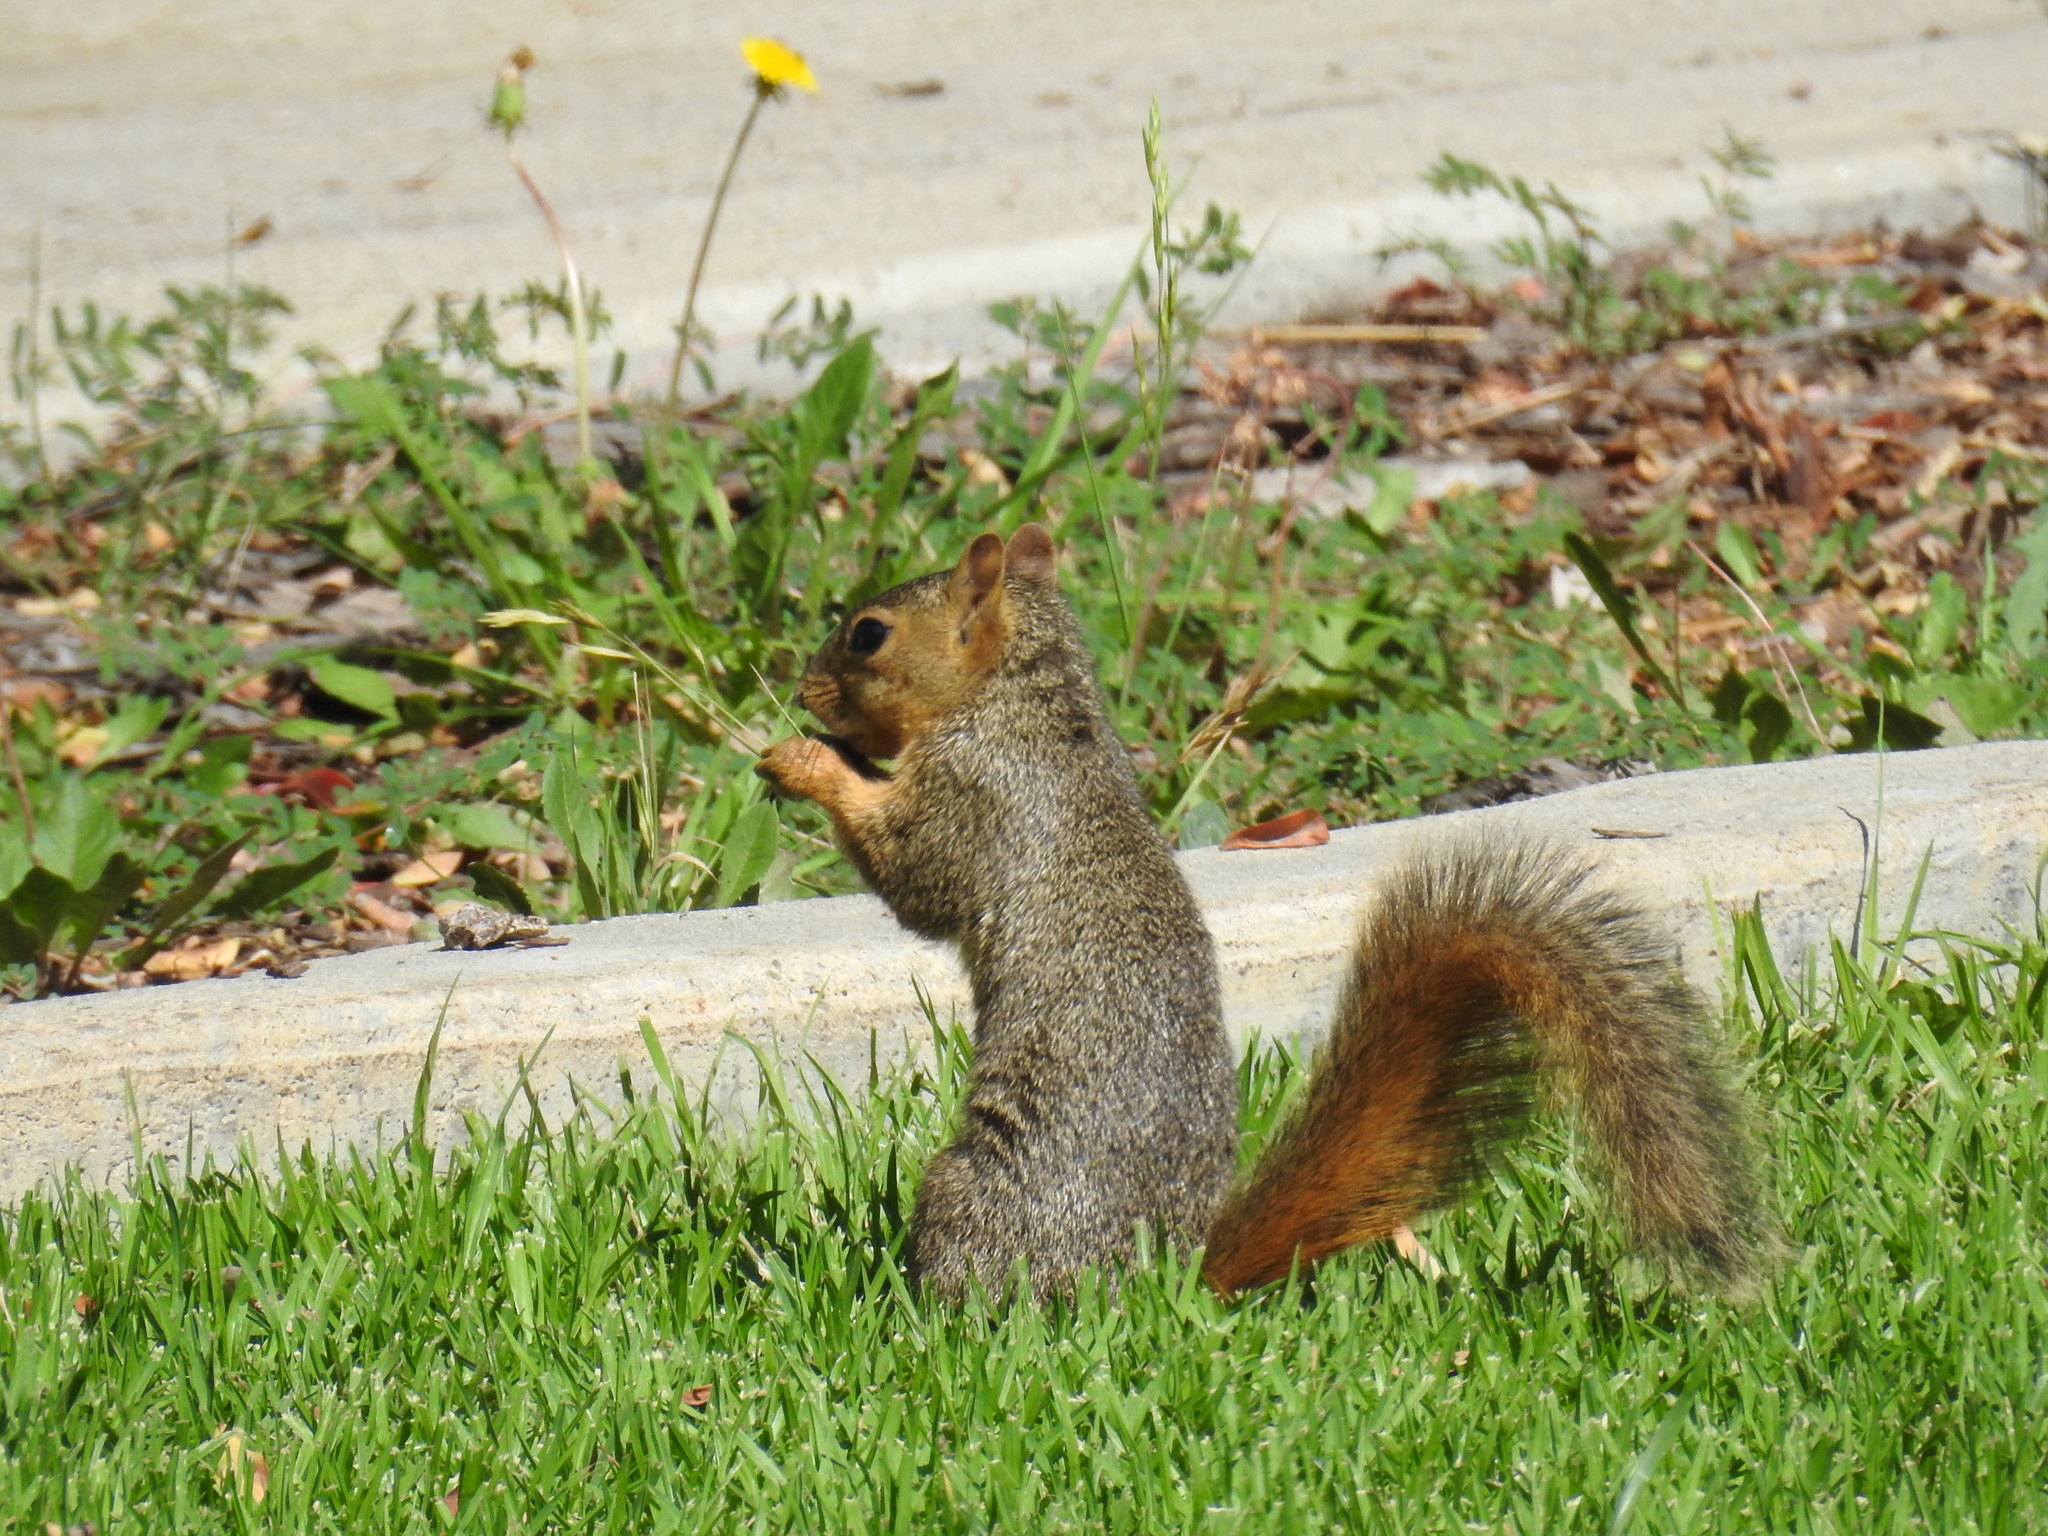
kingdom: Animalia
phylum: Chordata
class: Mammalia
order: Rodentia
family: Sciuridae
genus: Sciurus
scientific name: Sciurus niger
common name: Fox squirrel
